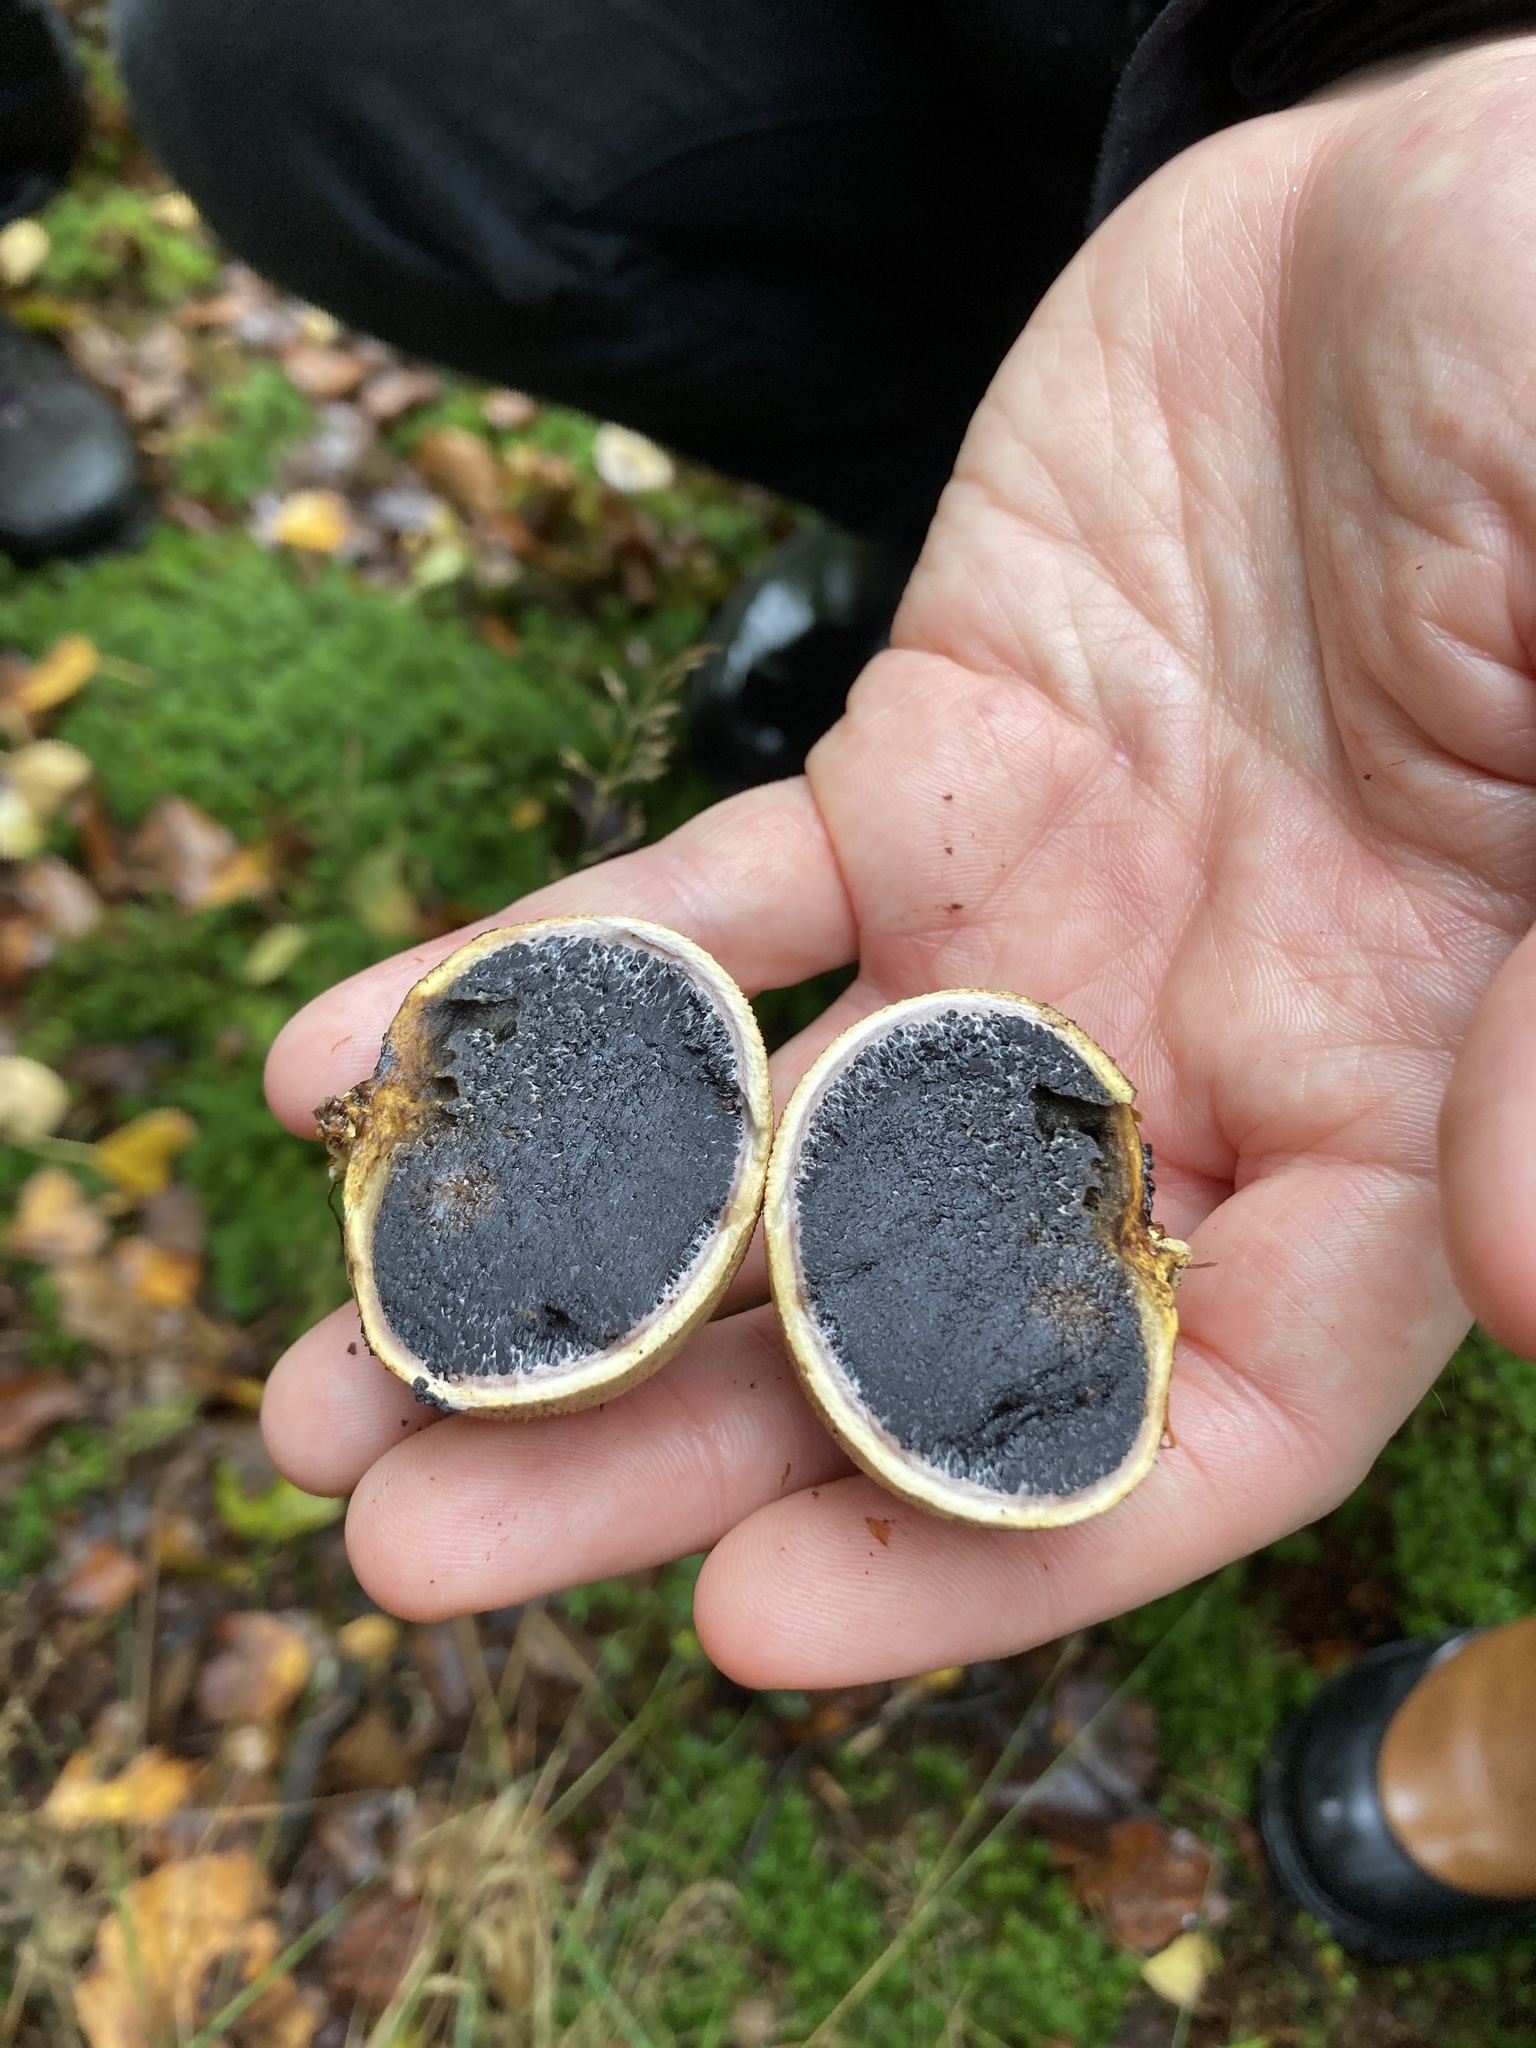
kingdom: Fungi
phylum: Basidiomycota
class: Agaricomycetes
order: Boletales
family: Sclerodermataceae
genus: Scleroderma
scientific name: Scleroderma citrinum
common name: Common earthball
